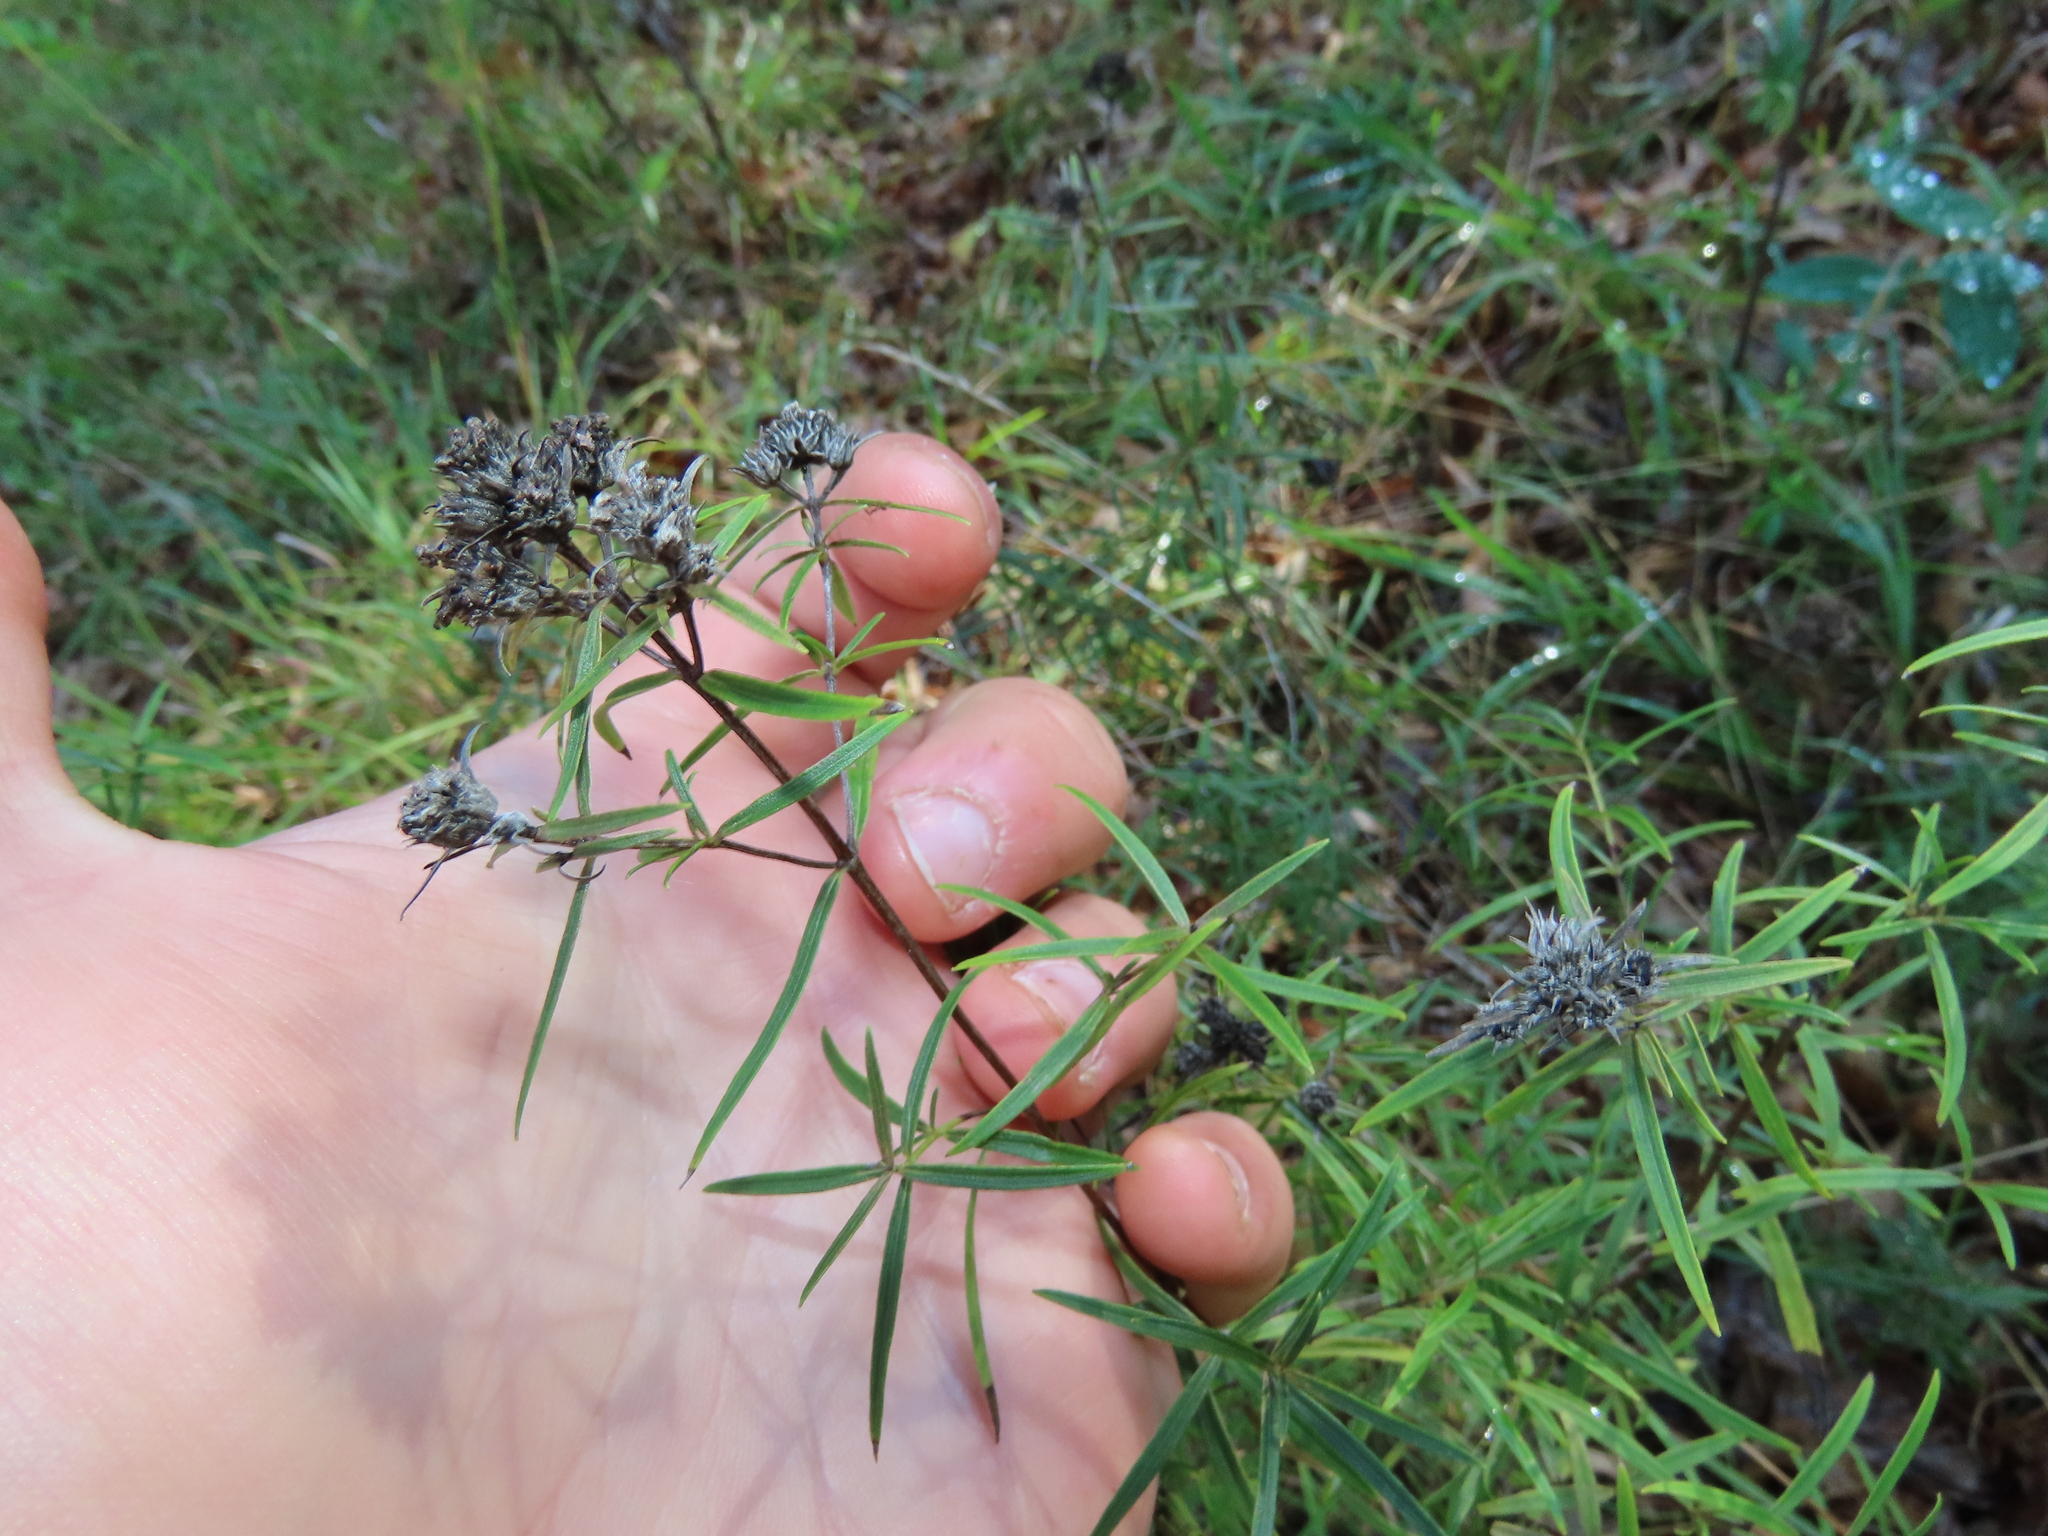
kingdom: Plantae
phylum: Tracheophyta
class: Magnoliopsida
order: Lamiales
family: Lamiaceae
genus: Pycnanthemum
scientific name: Pycnanthemum tenuifolium
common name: Narrow-leaf mountain-mint
